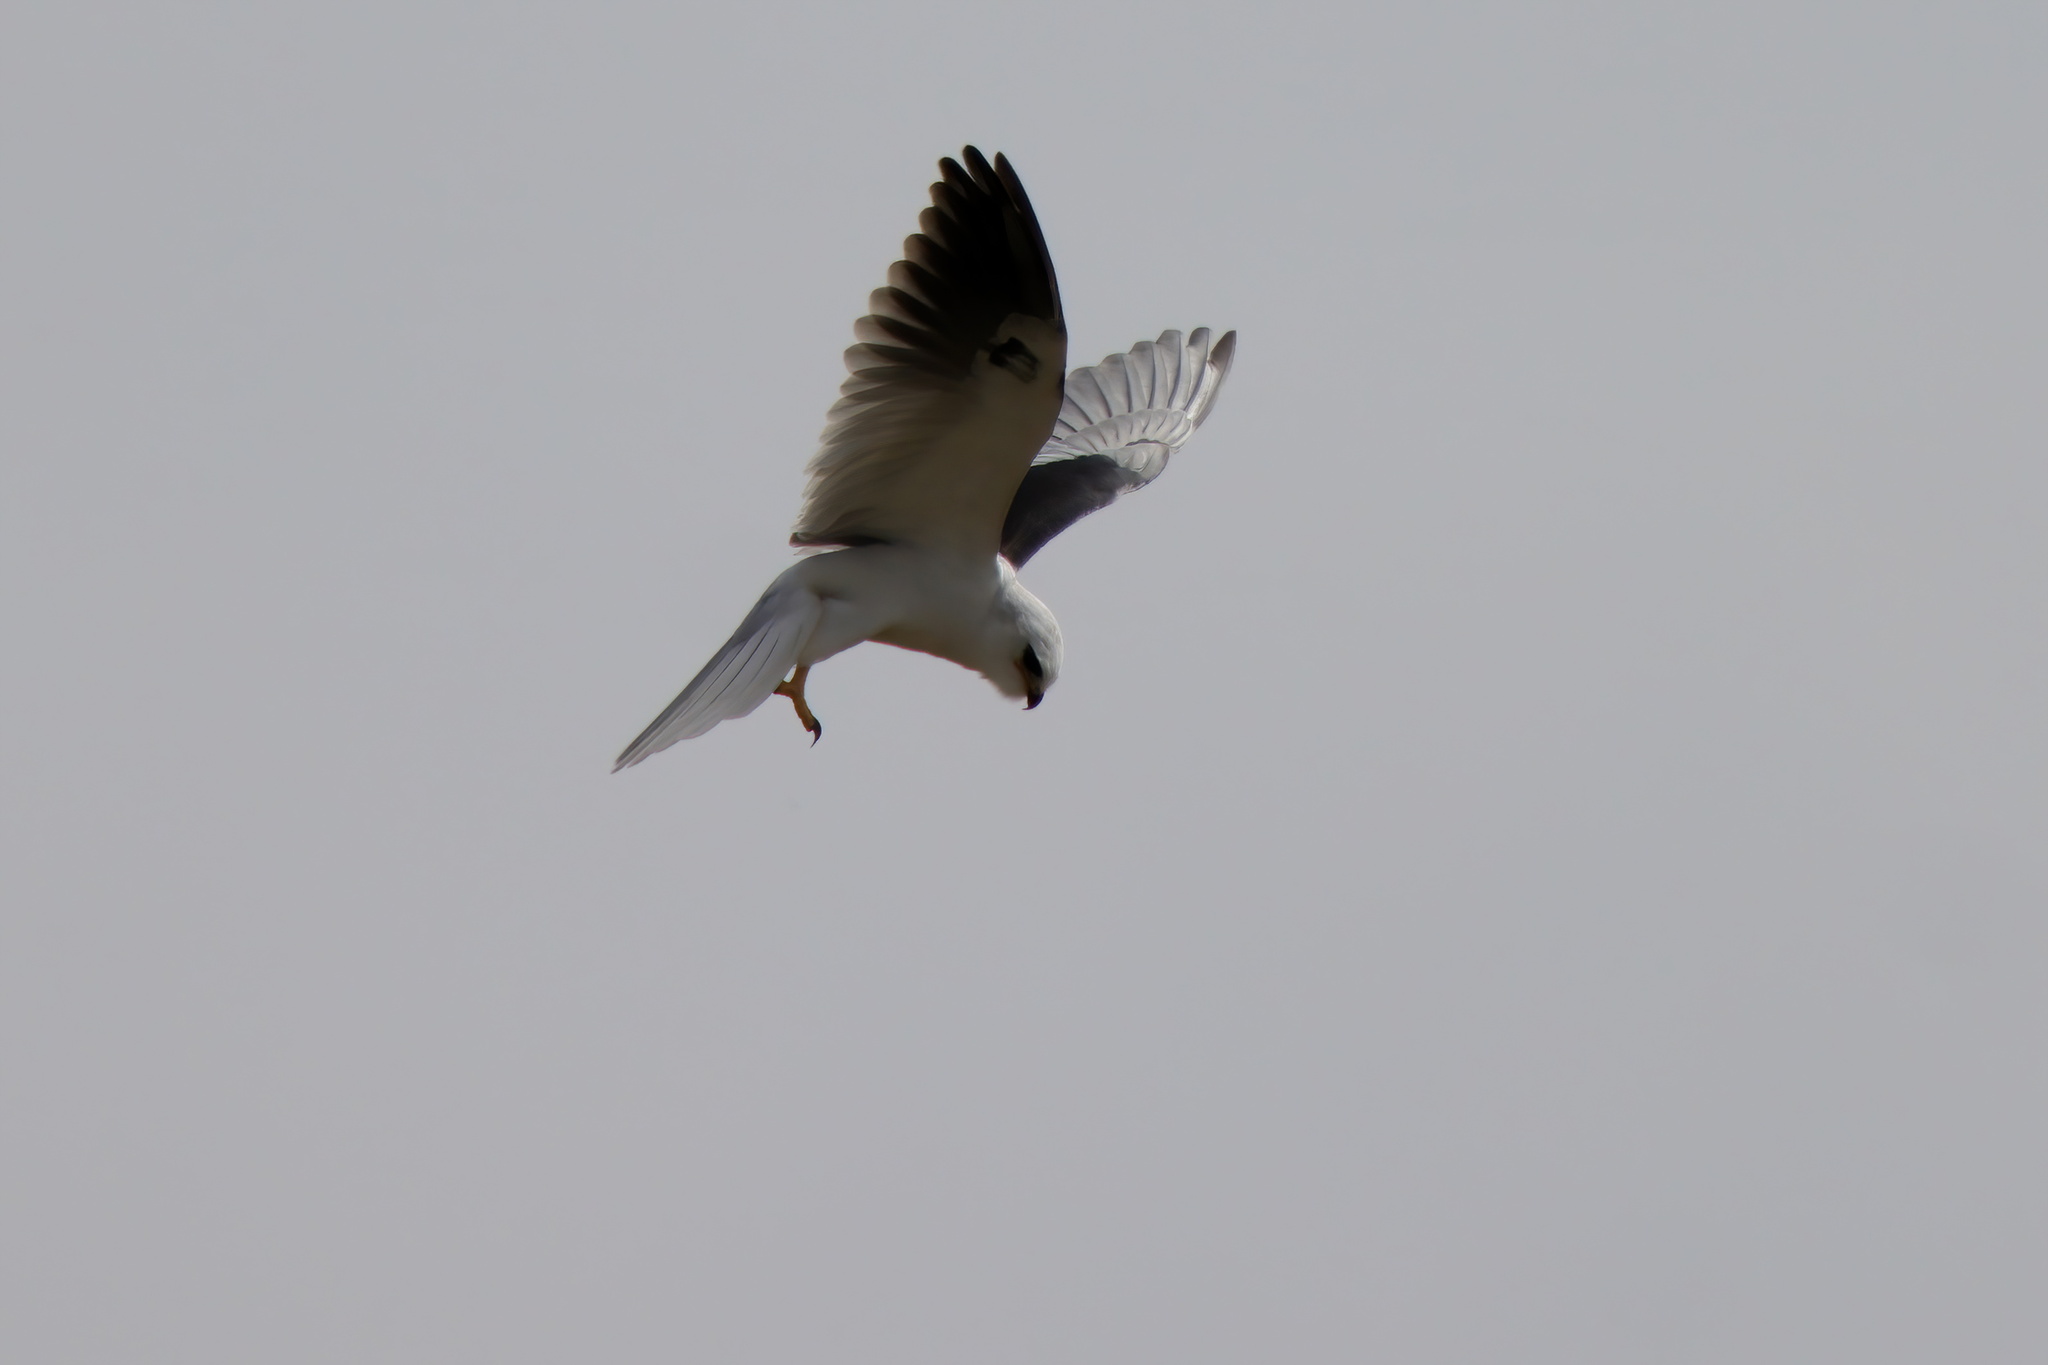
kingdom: Animalia
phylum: Chordata
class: Aves
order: Accipitriformes
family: Accipitridae
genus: Elanus
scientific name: Elanus leucurus
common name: White-tailed kite
